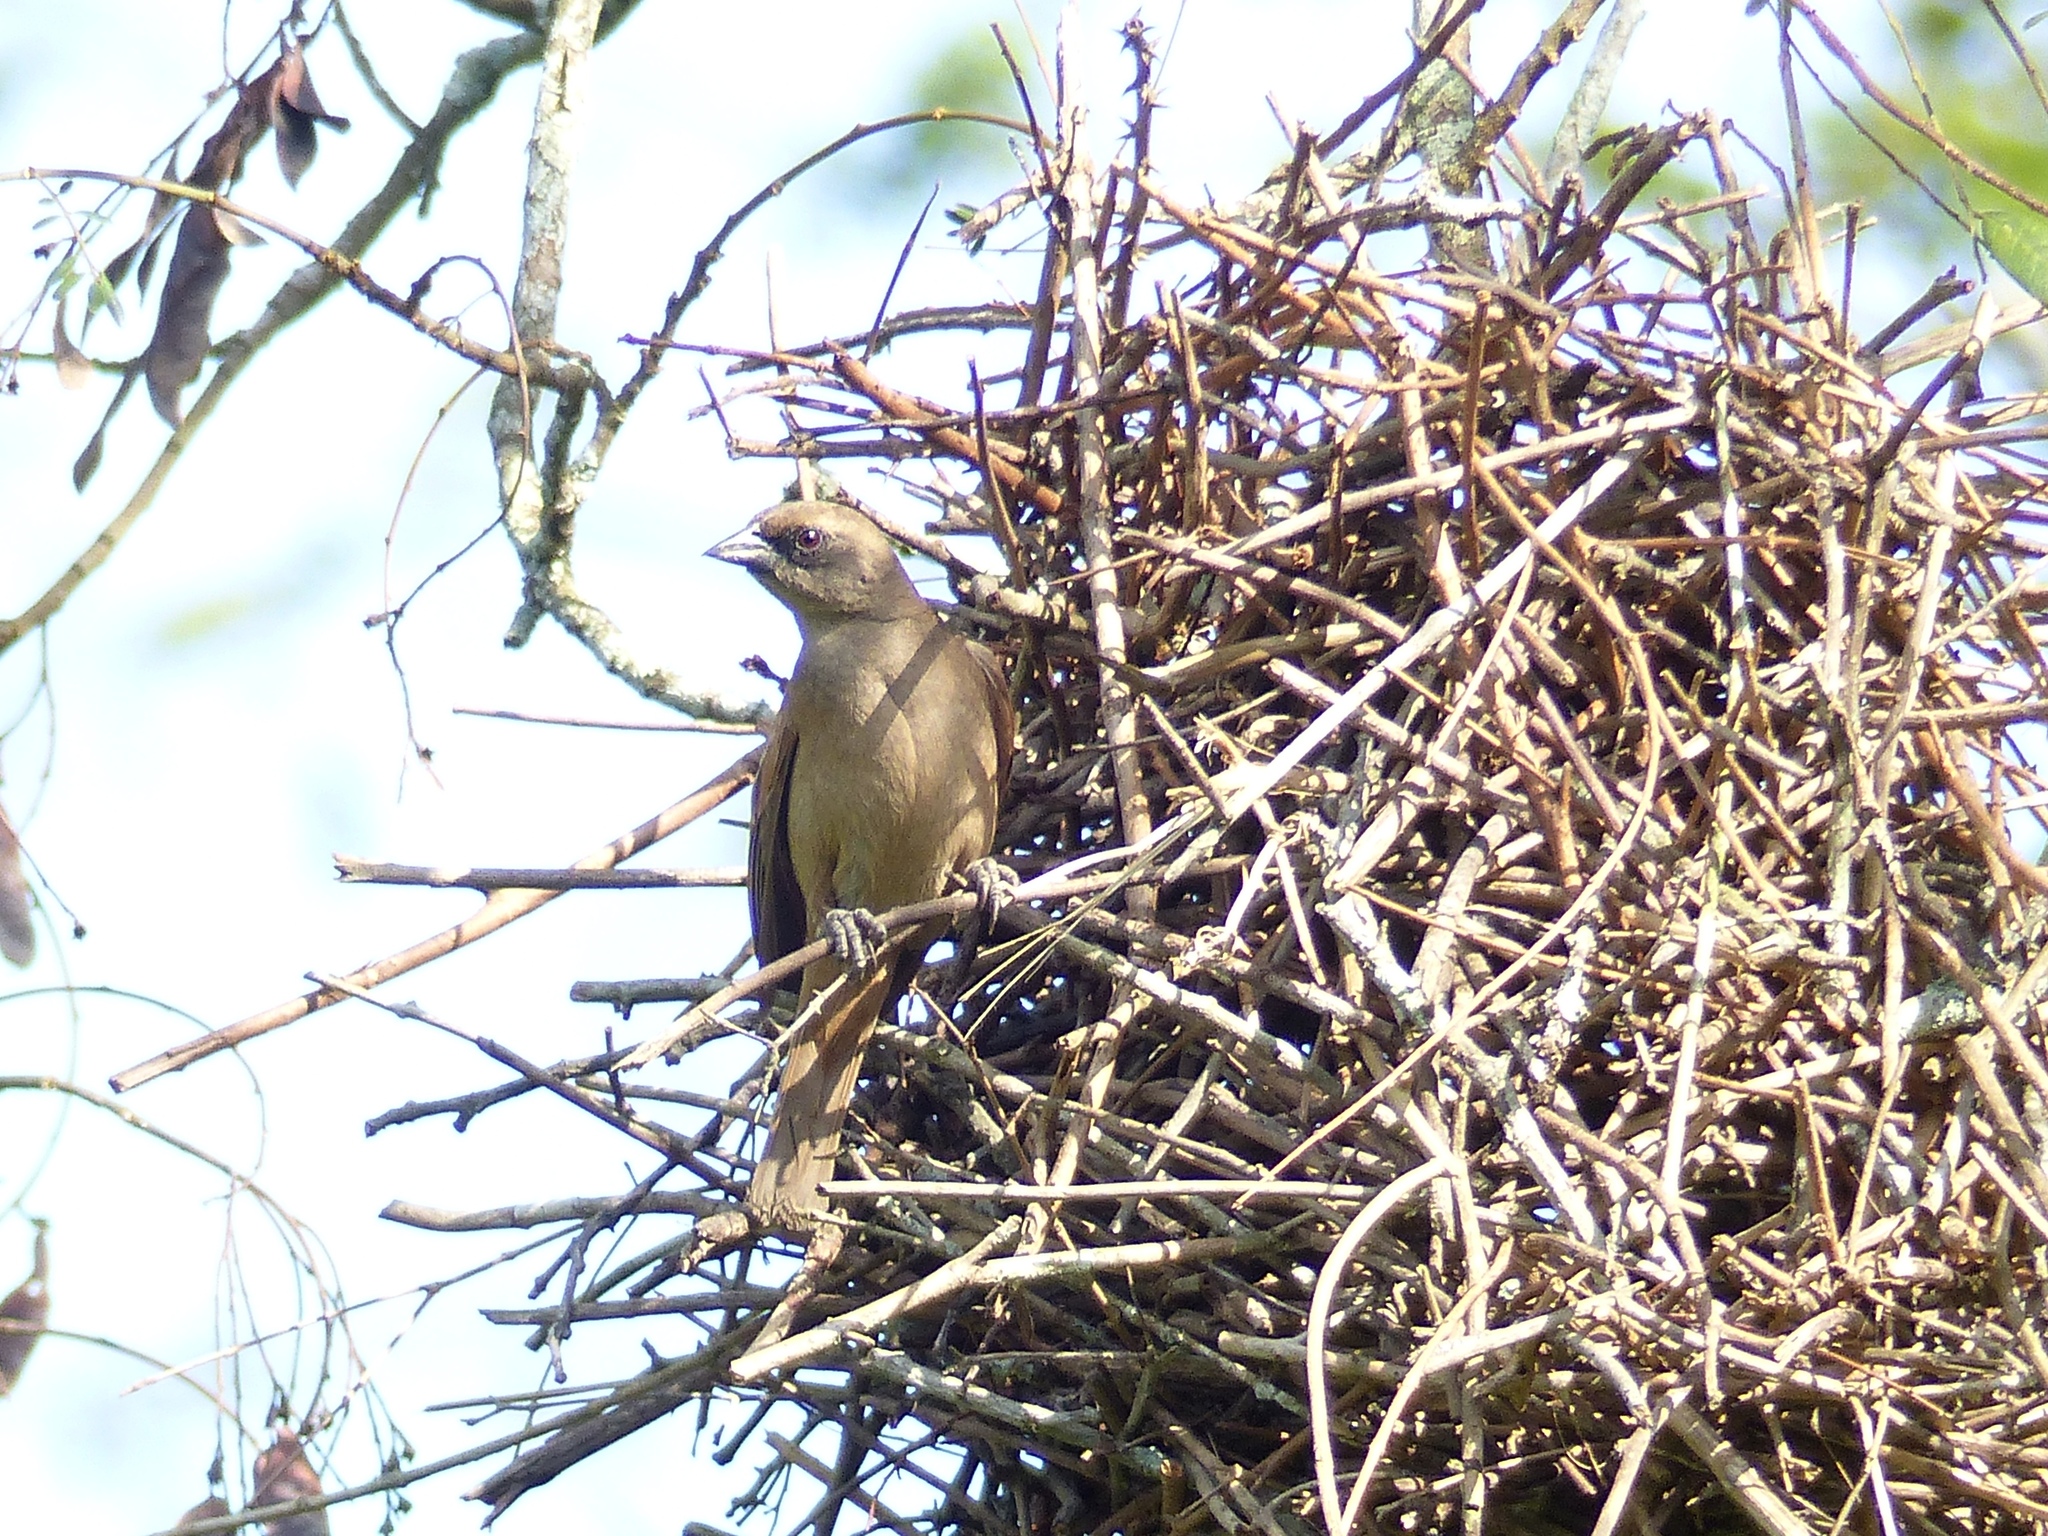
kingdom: Animalia
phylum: Chordata
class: Aves
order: Passeriformes
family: Icteridae
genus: Agelaioides
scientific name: Agelaioides badius
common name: Baywing
